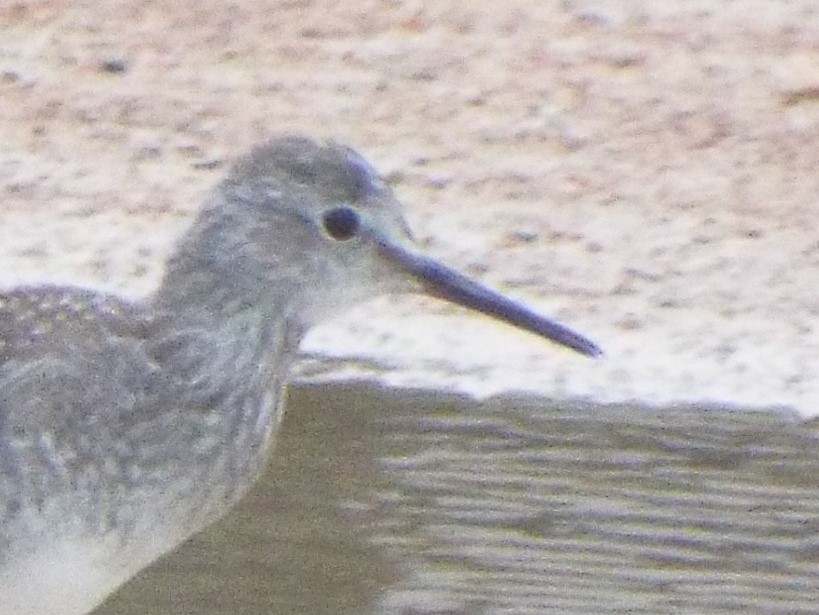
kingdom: Animalia
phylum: Chordata
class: Aves
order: Charadriiformes
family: Scolopacidae
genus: Tringa
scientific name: Tringa flavipes
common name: Lesser yellowlegs
